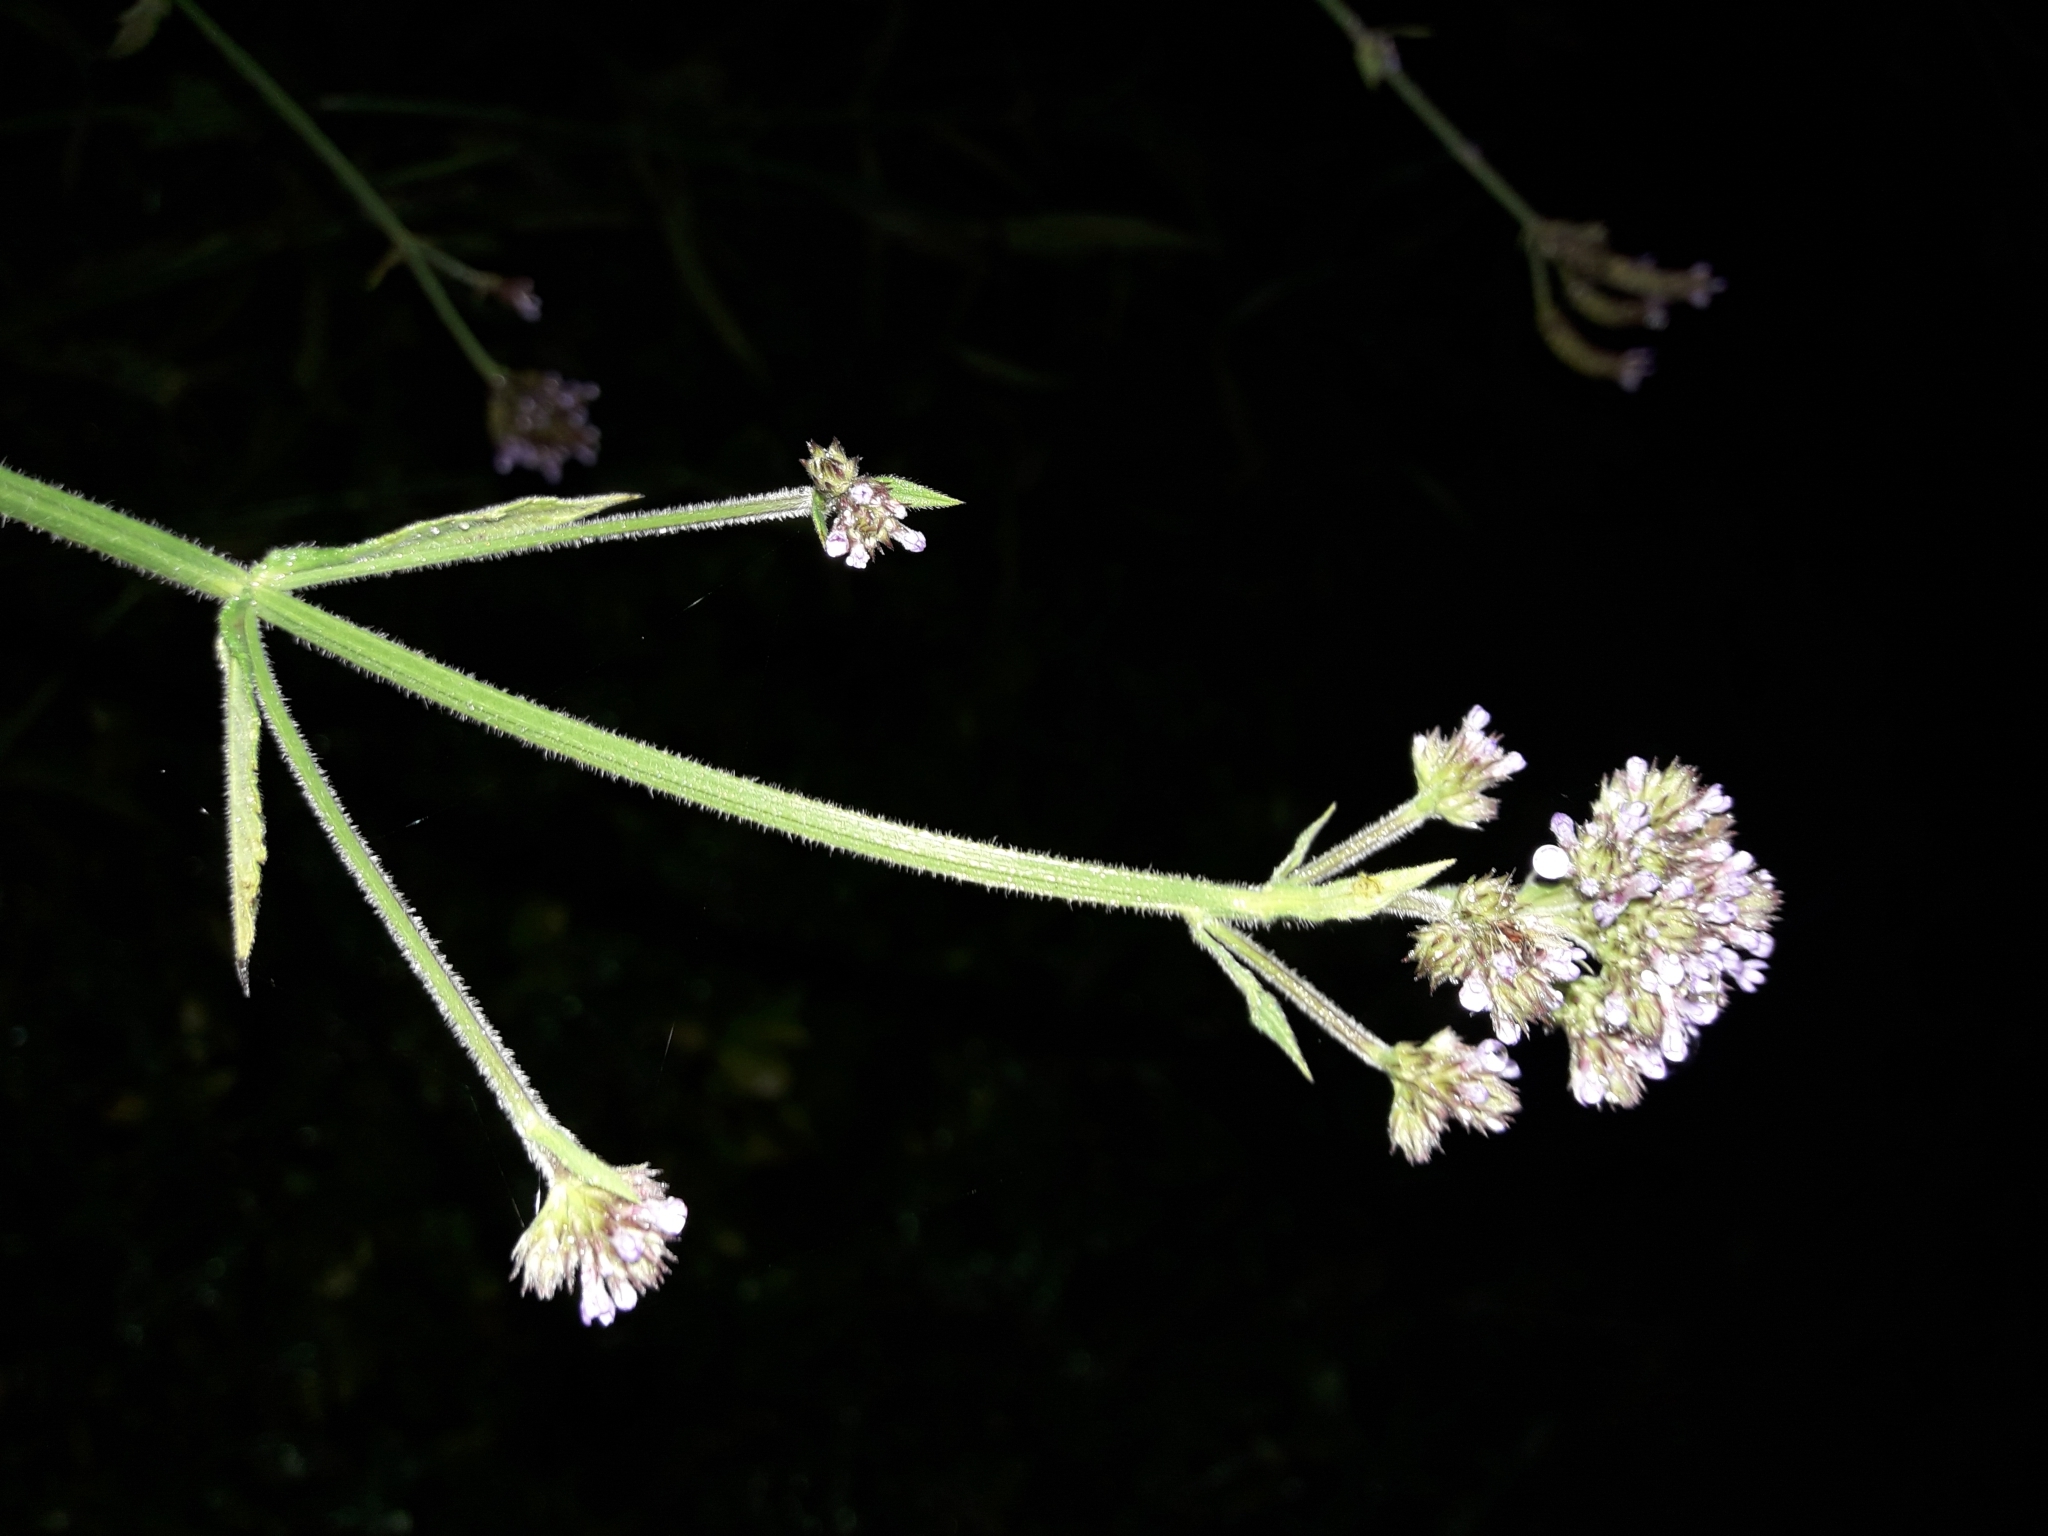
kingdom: Plantae
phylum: Tracheophyta
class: Magnoliopsida
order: Lamiales
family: Verbenaceae
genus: Verbena
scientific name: Verbena incompta
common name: Purpletop vervain
